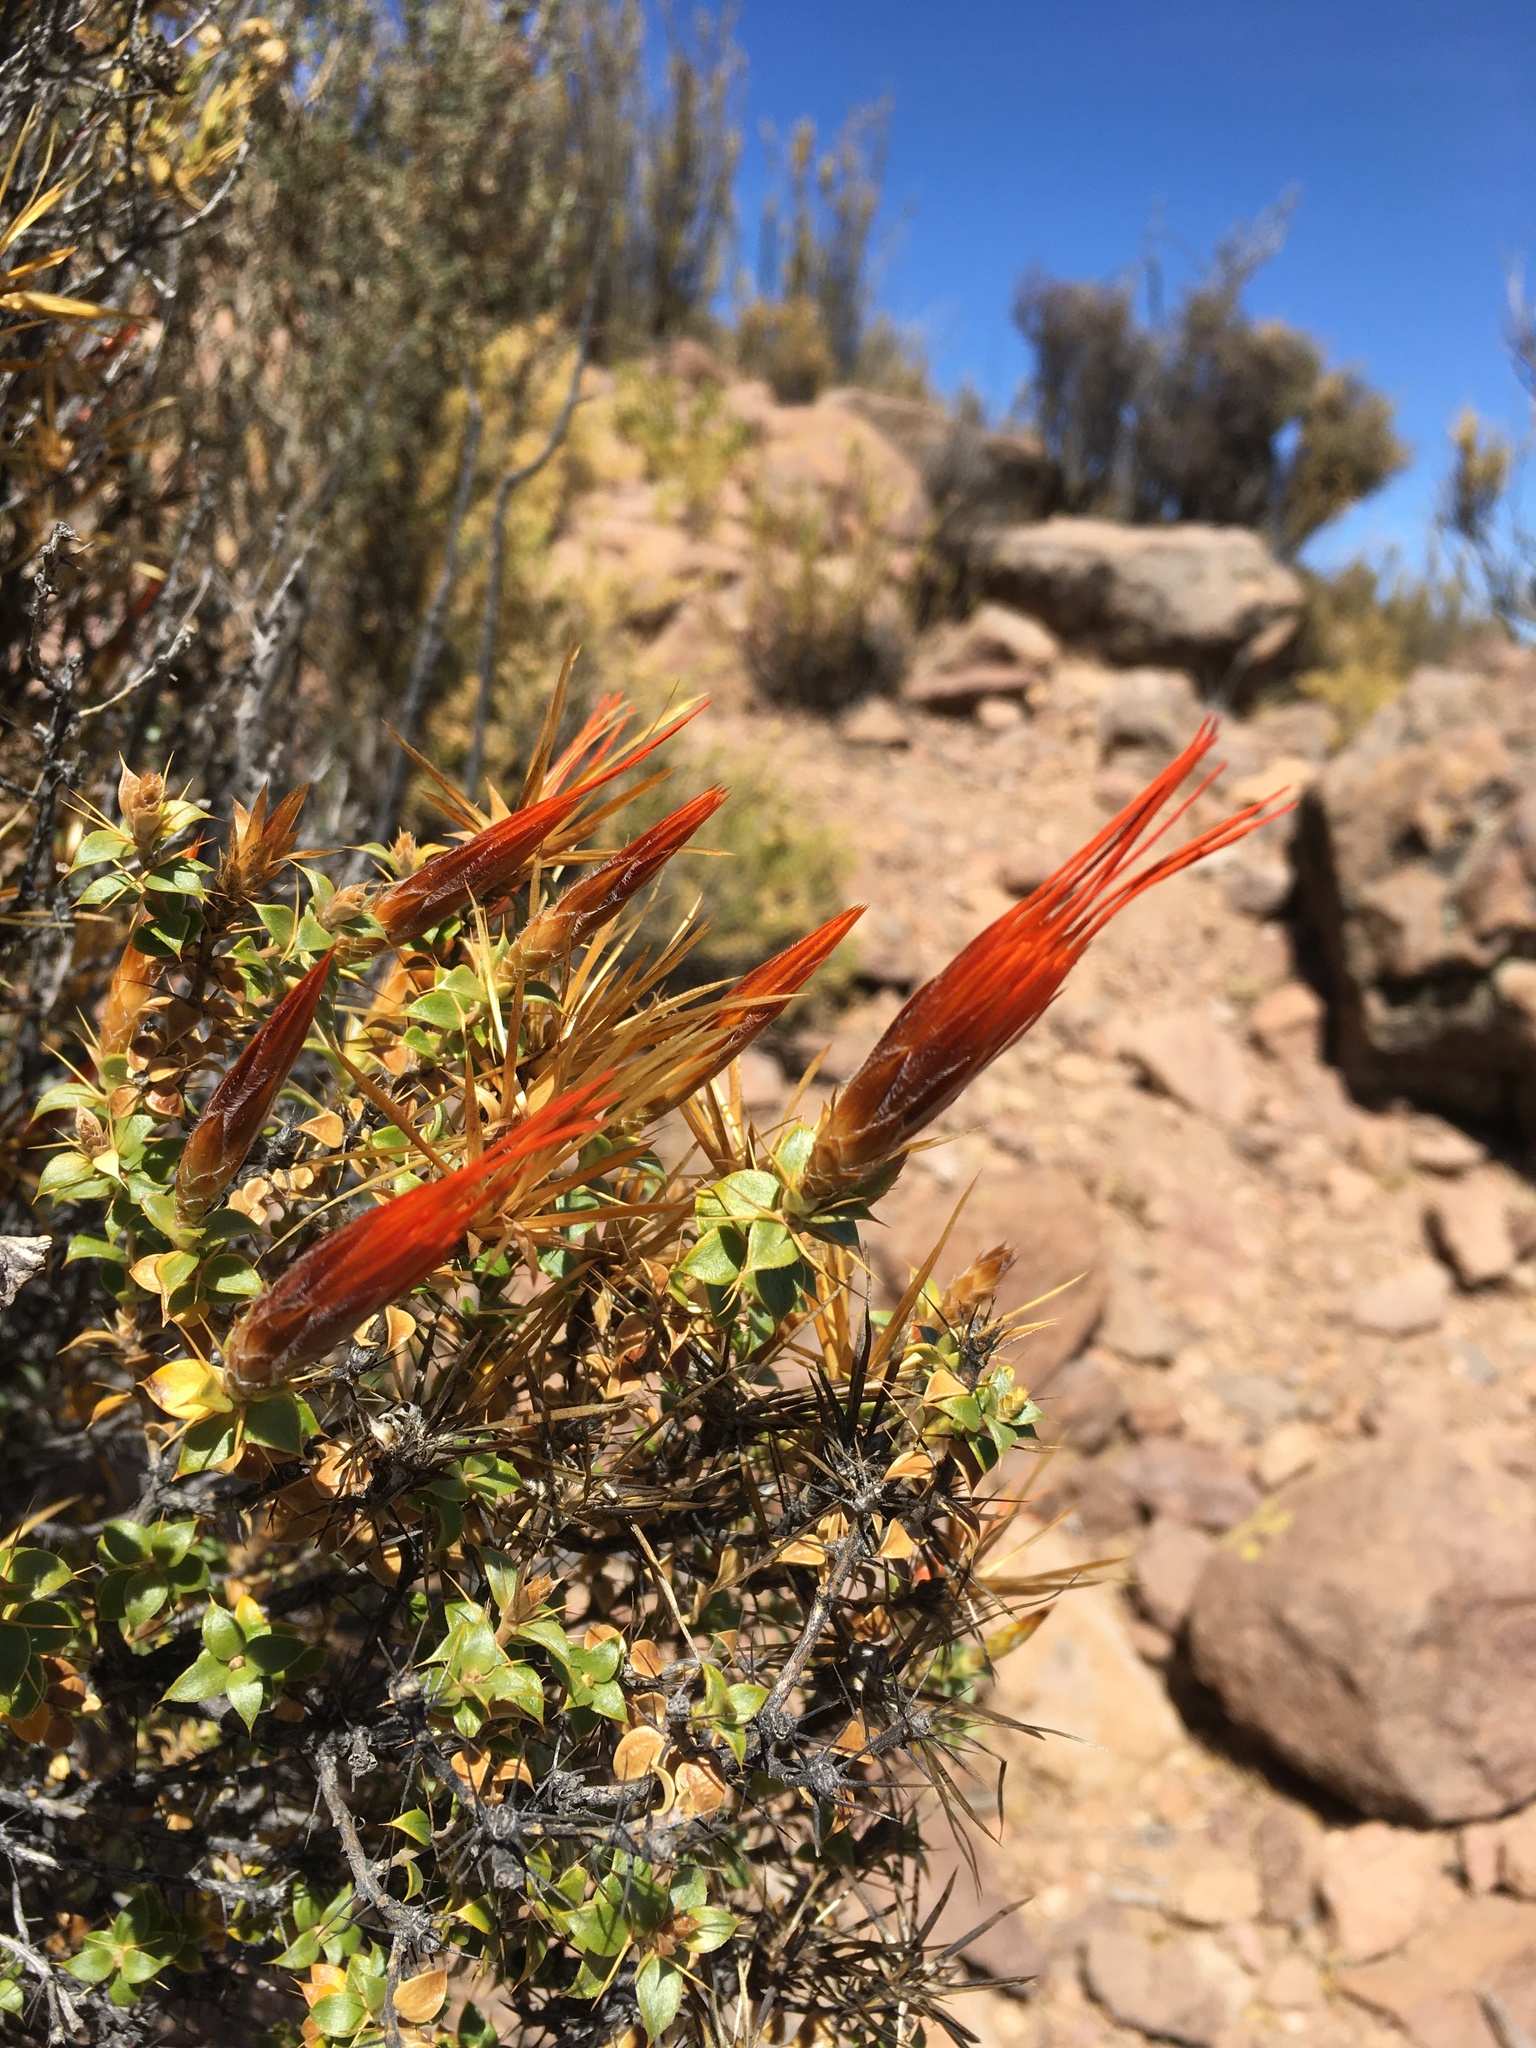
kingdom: Plantae
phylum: Tracheophyta
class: Magnoliopsida
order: Asterales
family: Asteraceae
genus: Chuquiraga
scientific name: Chuquiraga spinosa
